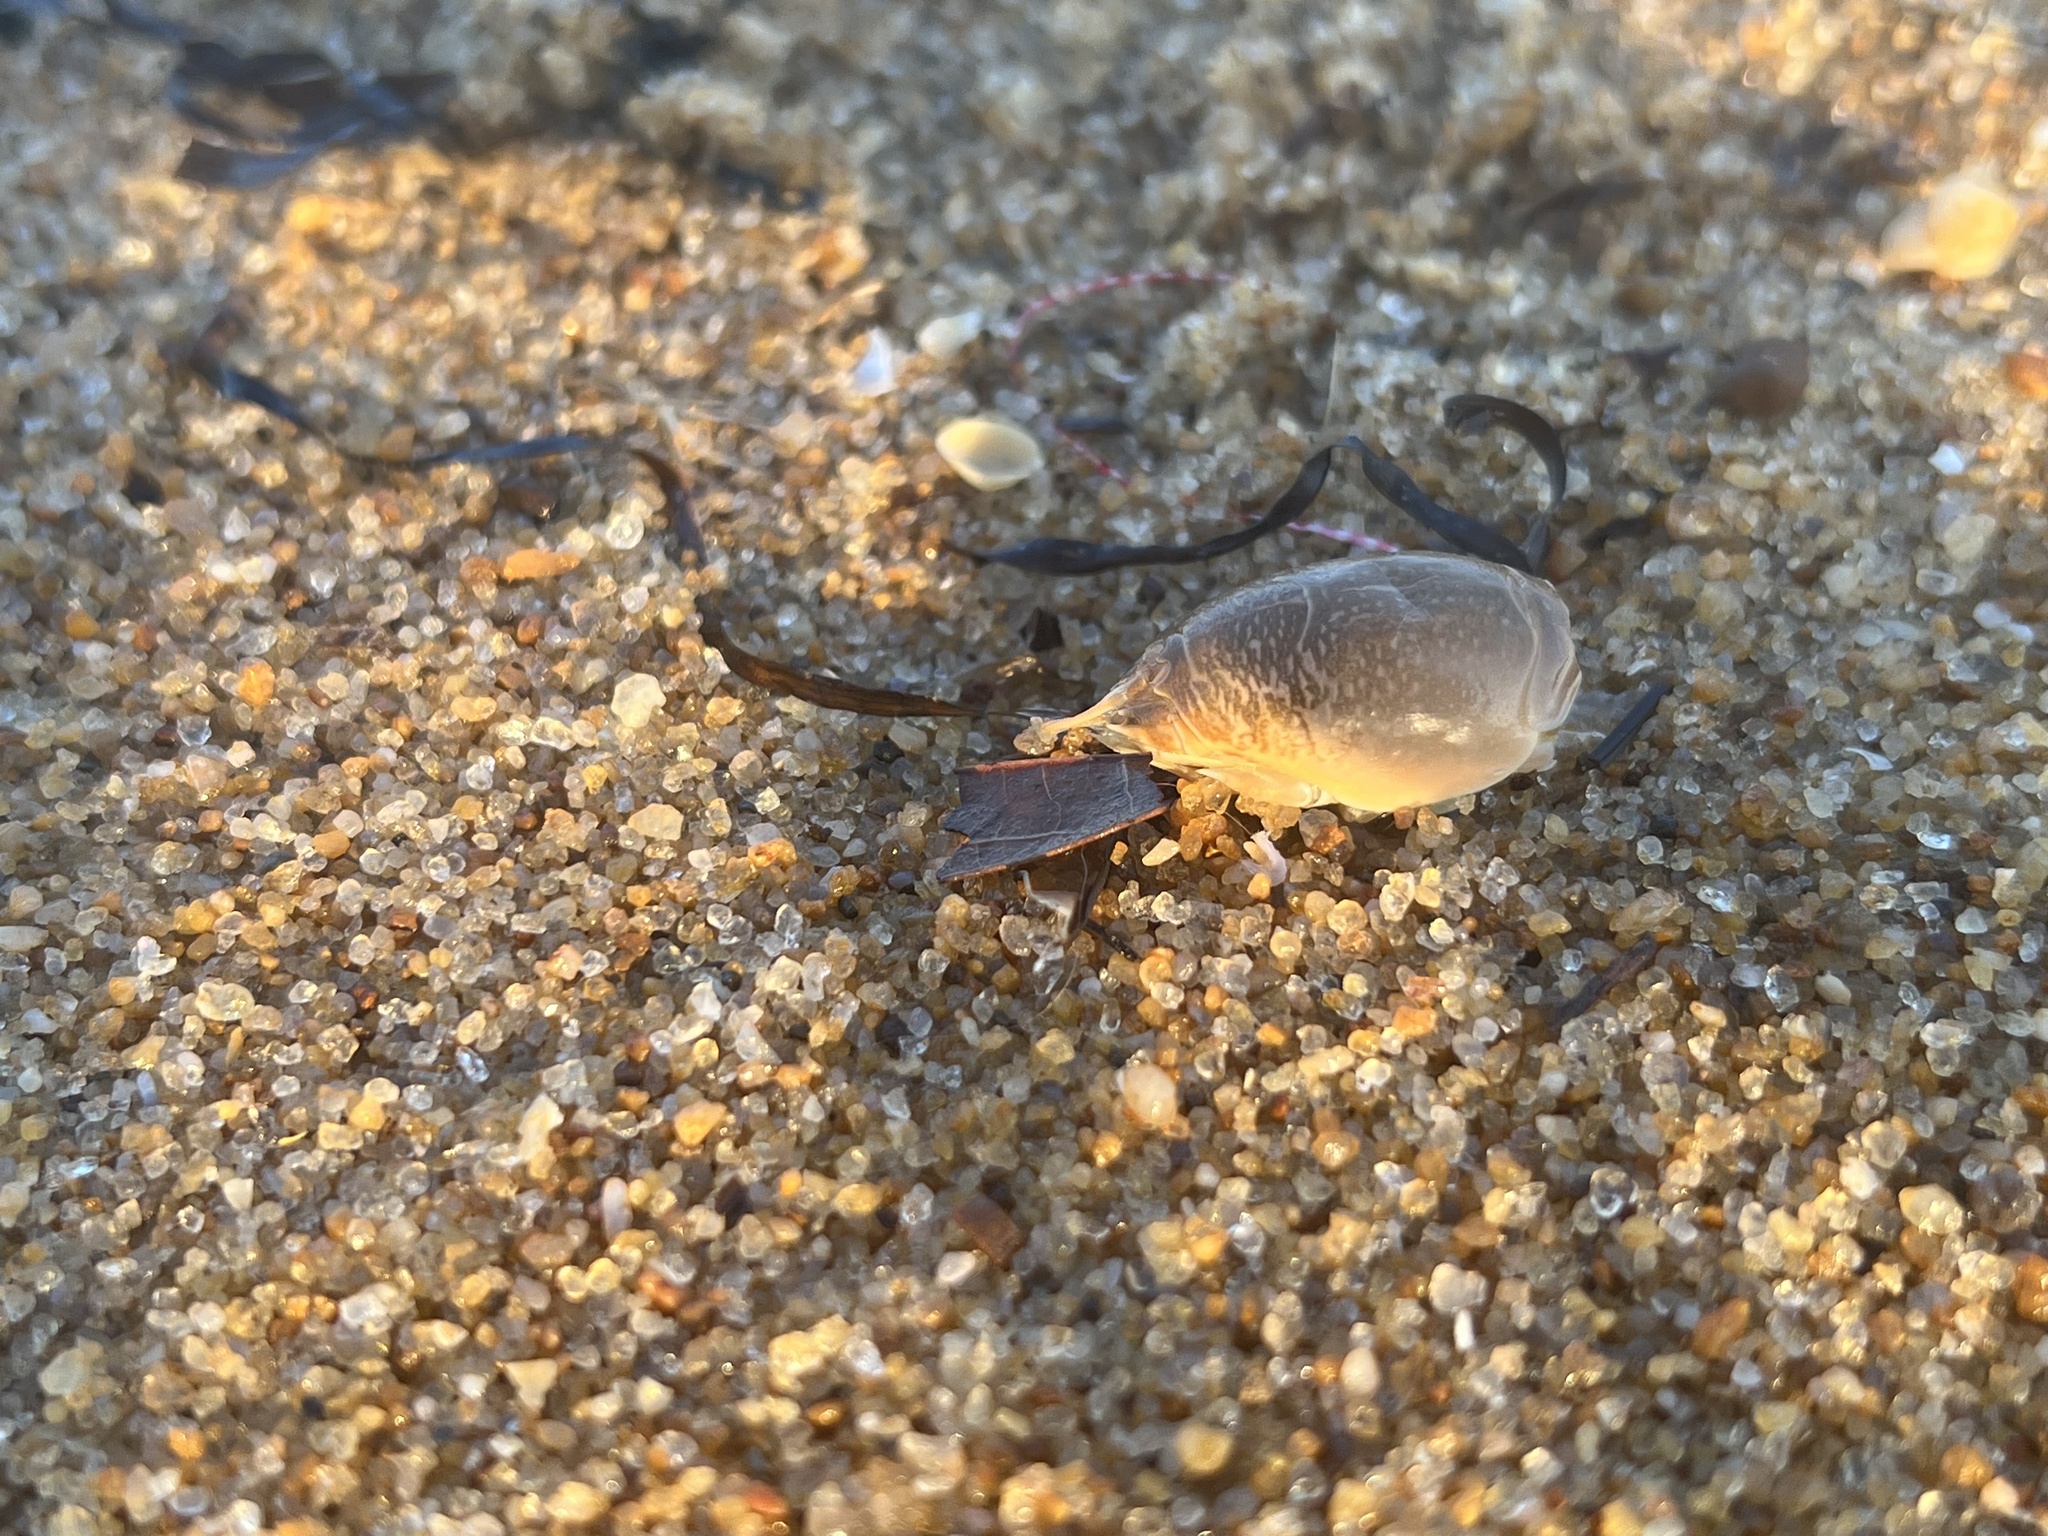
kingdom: Animalia
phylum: Arthropoda
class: Malacostraca
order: Decapoda
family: Hippidae
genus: Emerita
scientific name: Emerita talpoida
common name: Atlantic sand crab
